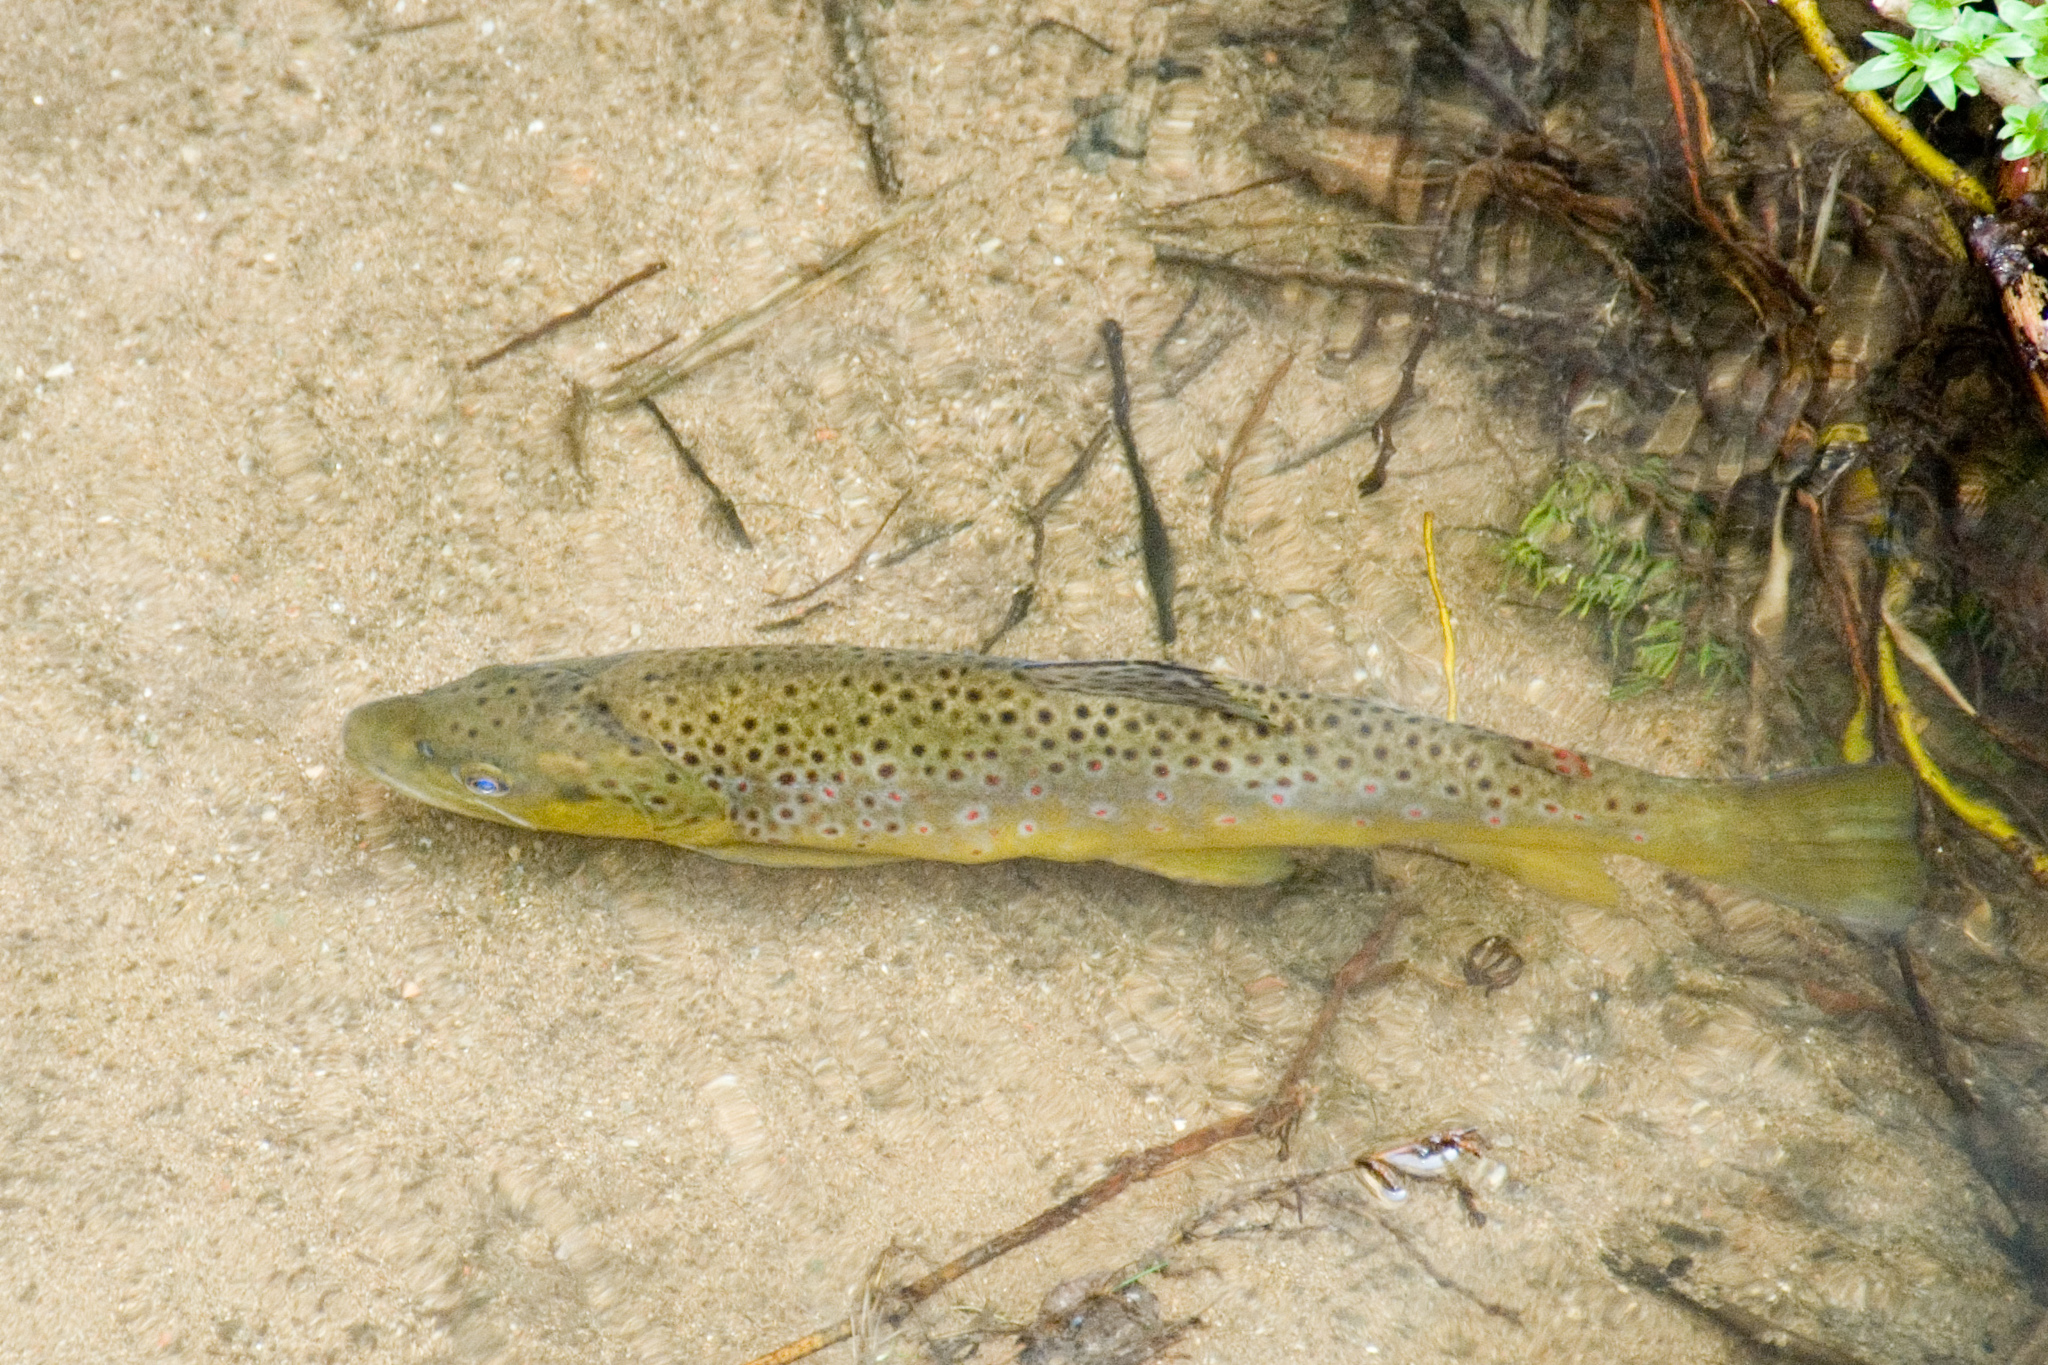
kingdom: Animalia
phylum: Chordata
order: Salmoniformes
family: Salmonidae
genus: Salmo
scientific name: Salmo trutta
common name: Brown trout
